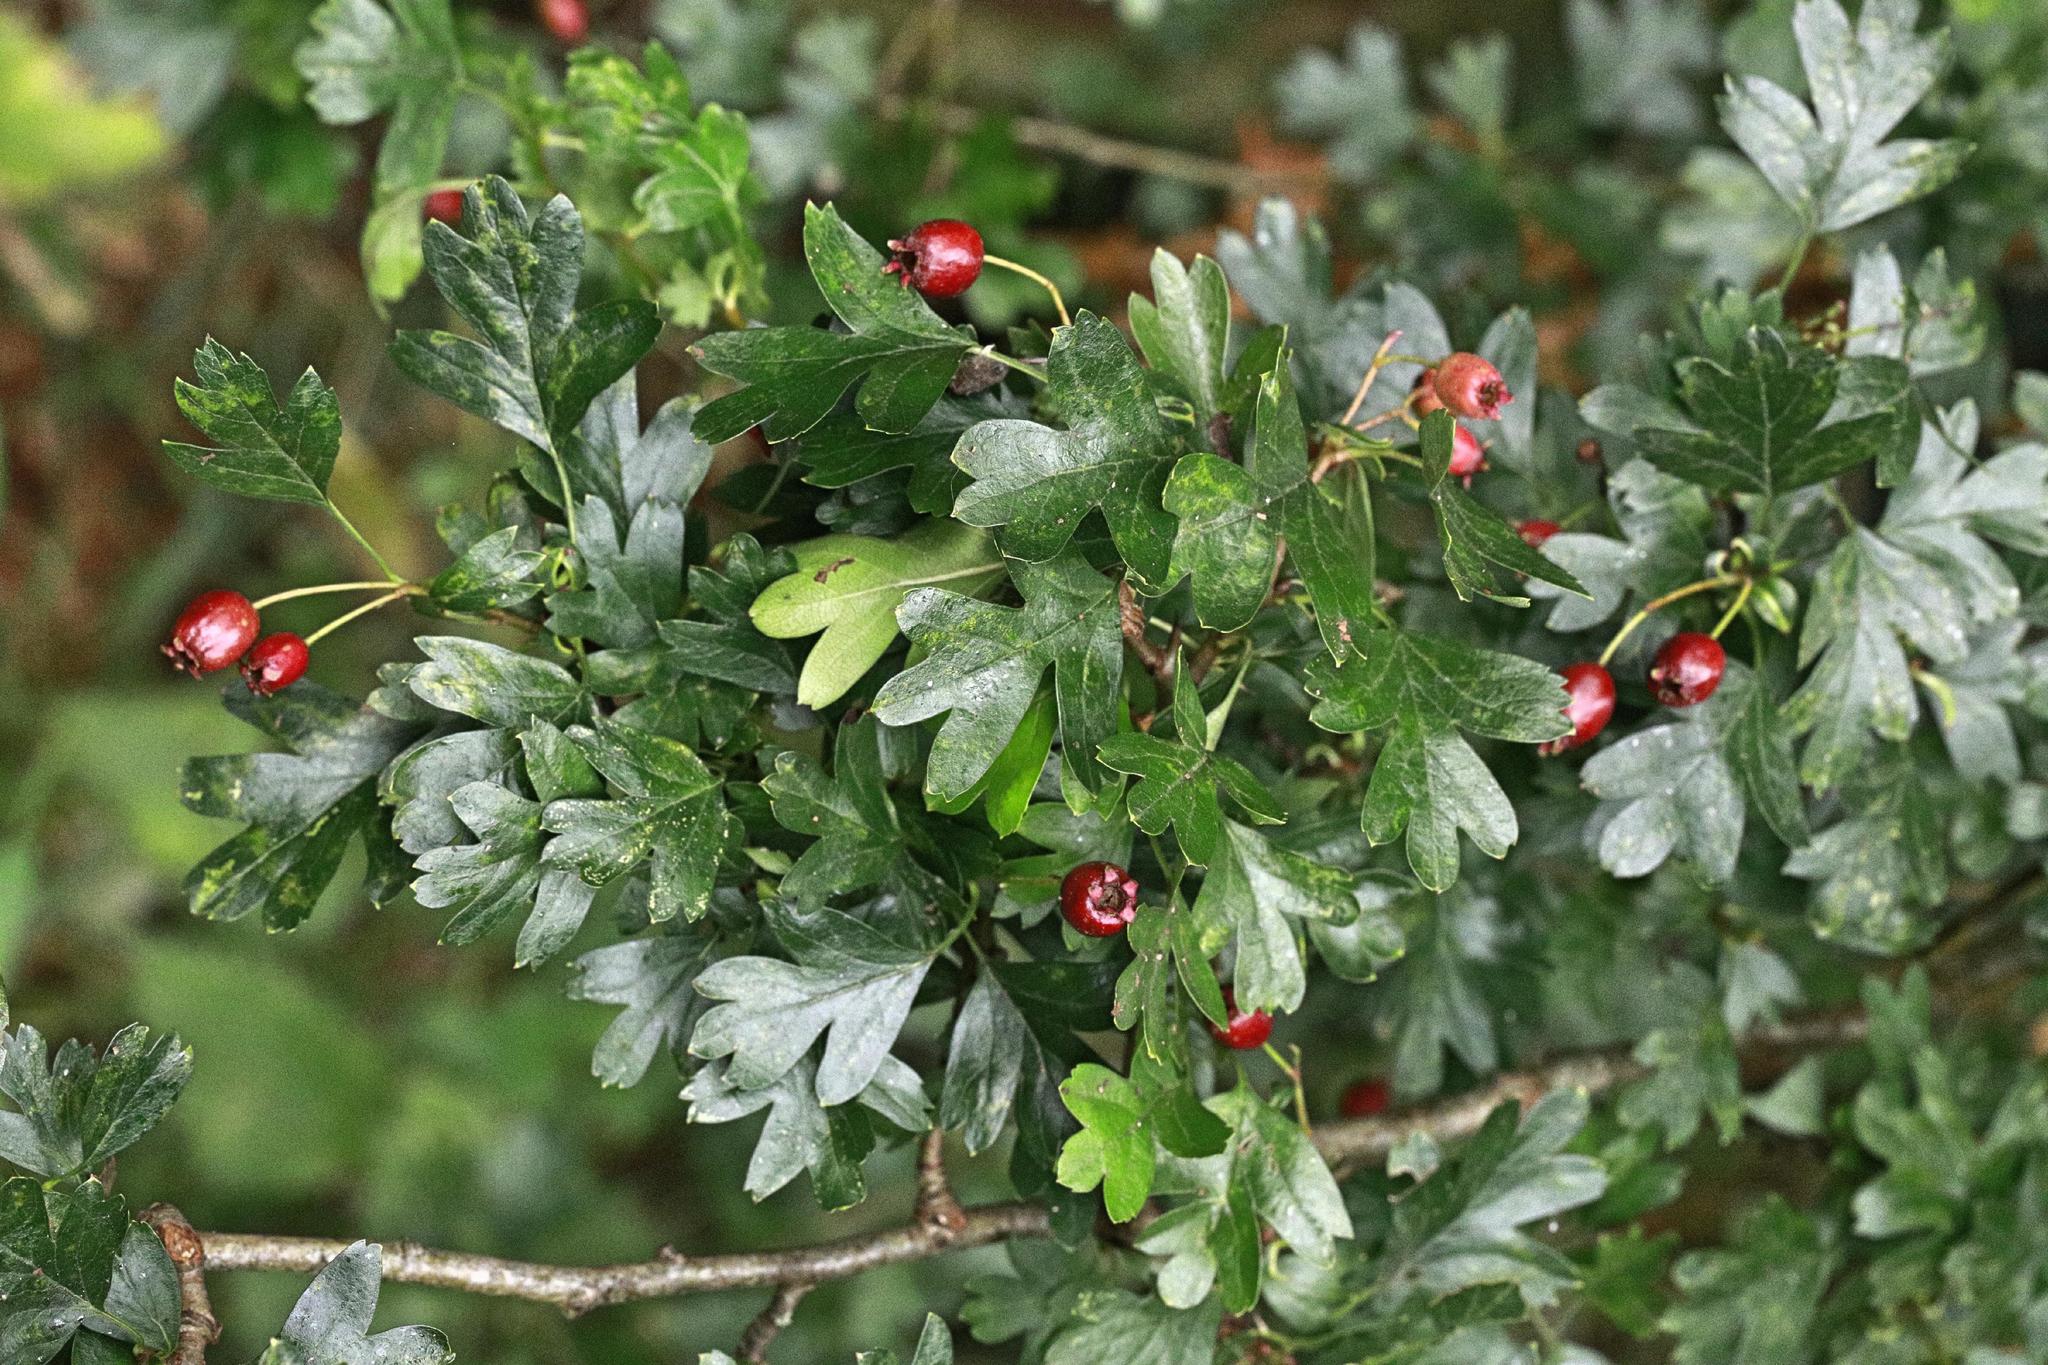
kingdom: Plantae
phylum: Tracheophyta
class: Magnoliopsida
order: Rosales
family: Rosaceae
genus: Crataegus
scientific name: Crataegus monogyna
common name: Hawthorn
